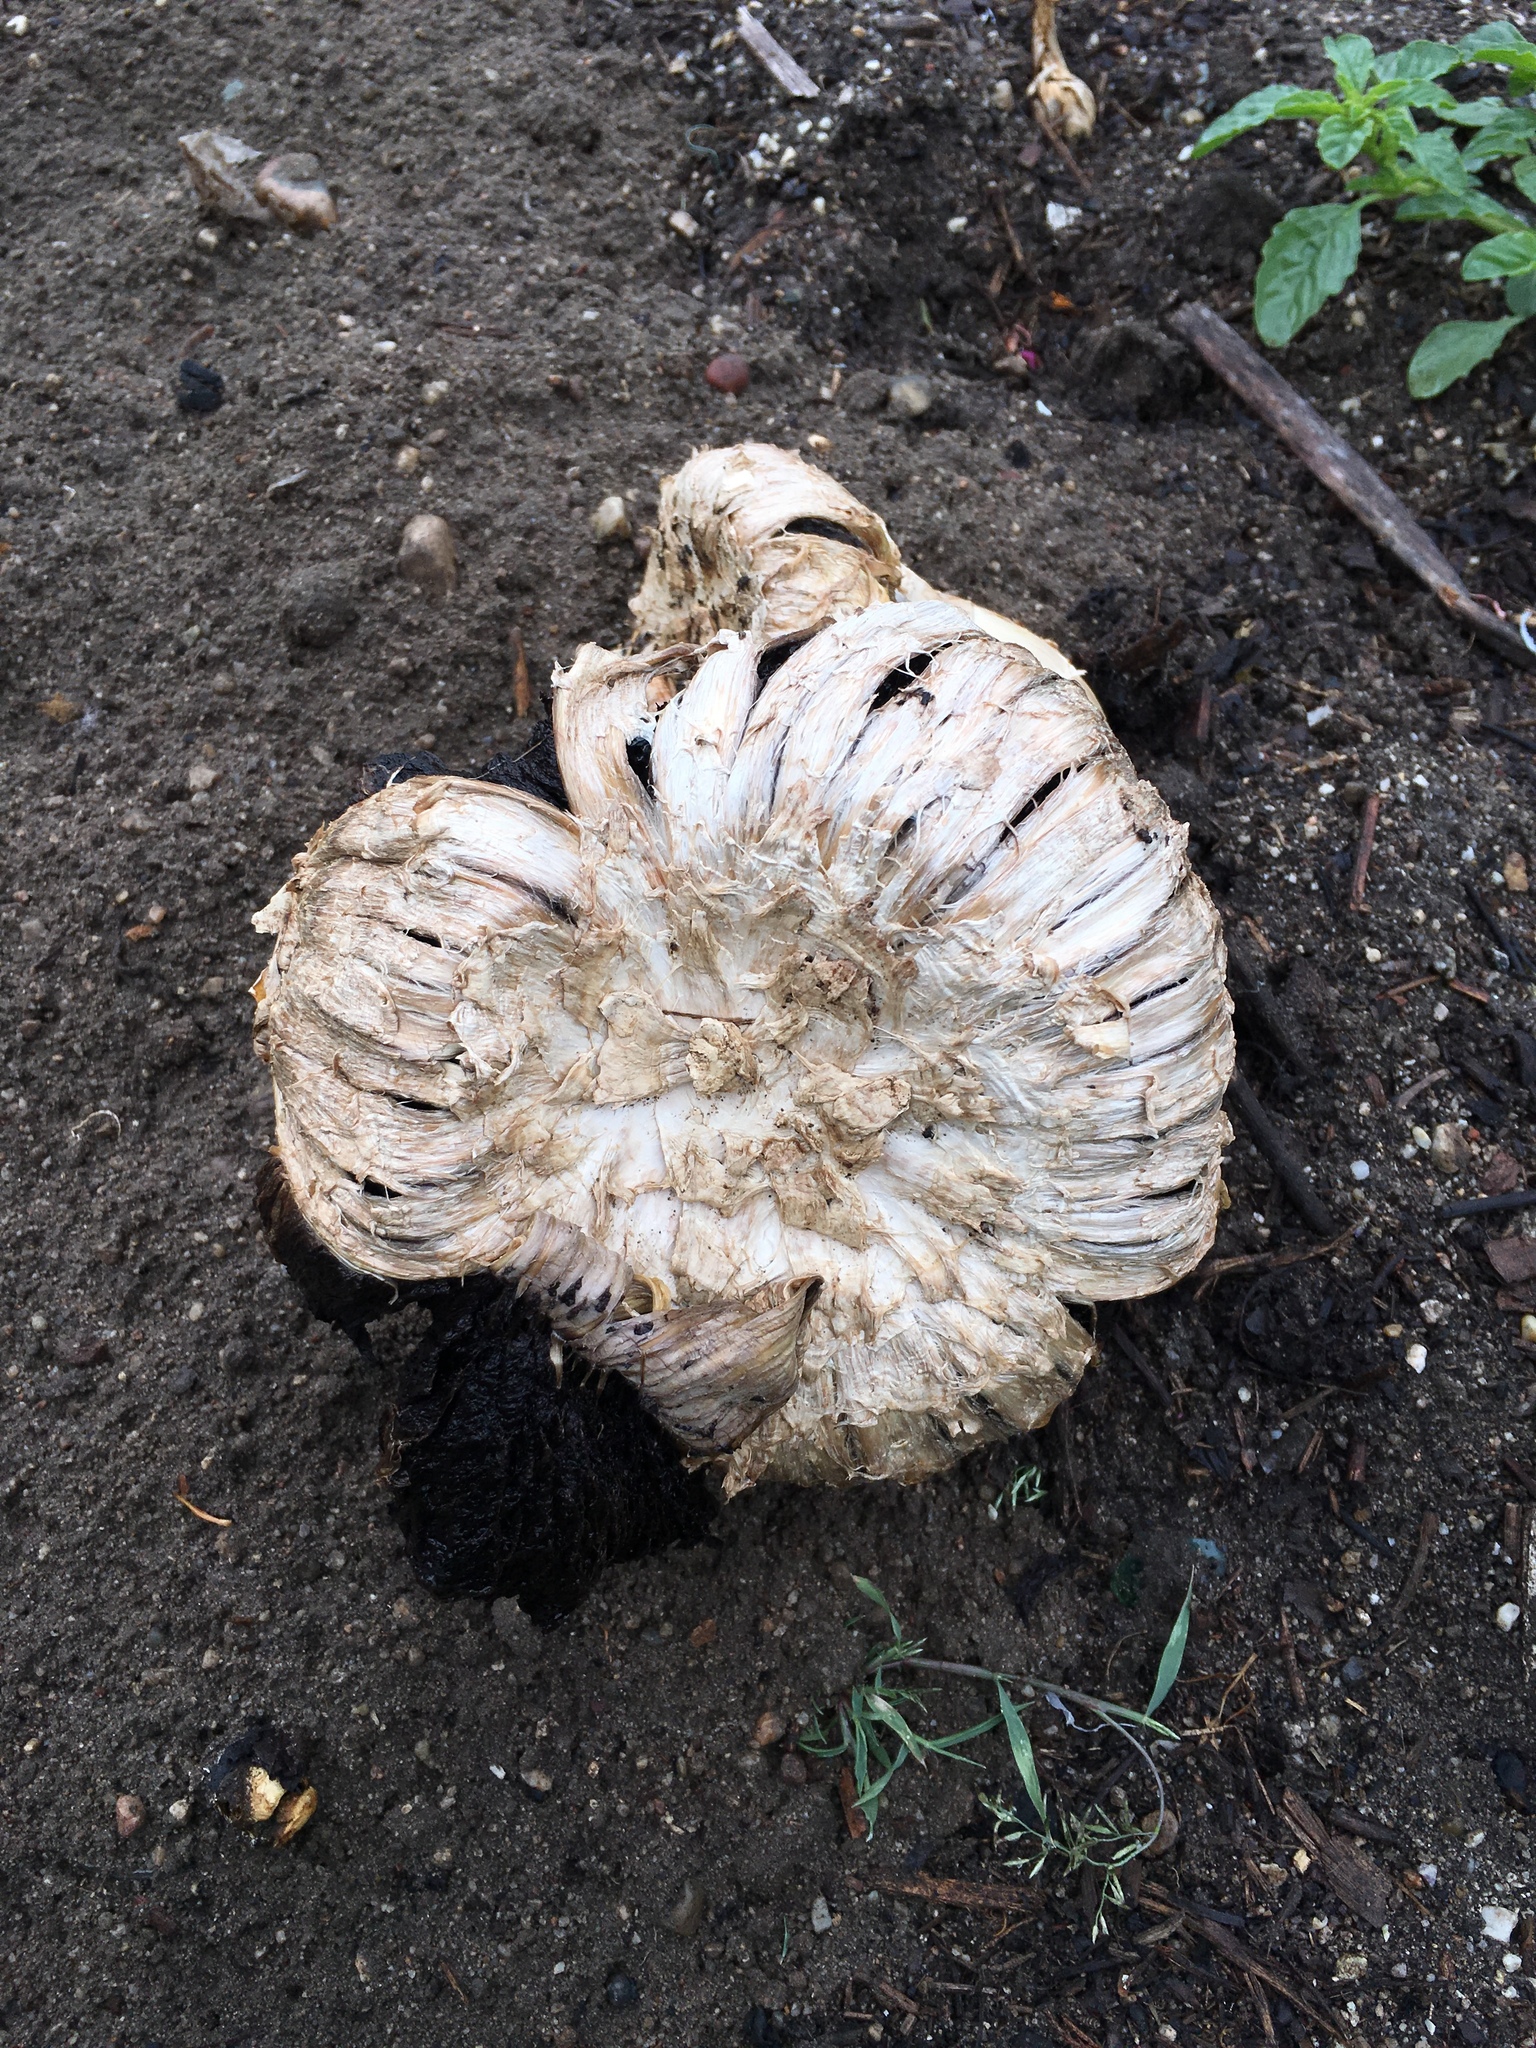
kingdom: Fungi
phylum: Basidiomycota
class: Agaricomycetes
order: Agaricales
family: Agaricaceae
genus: Agaricus
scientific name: Agaricus deserticola
